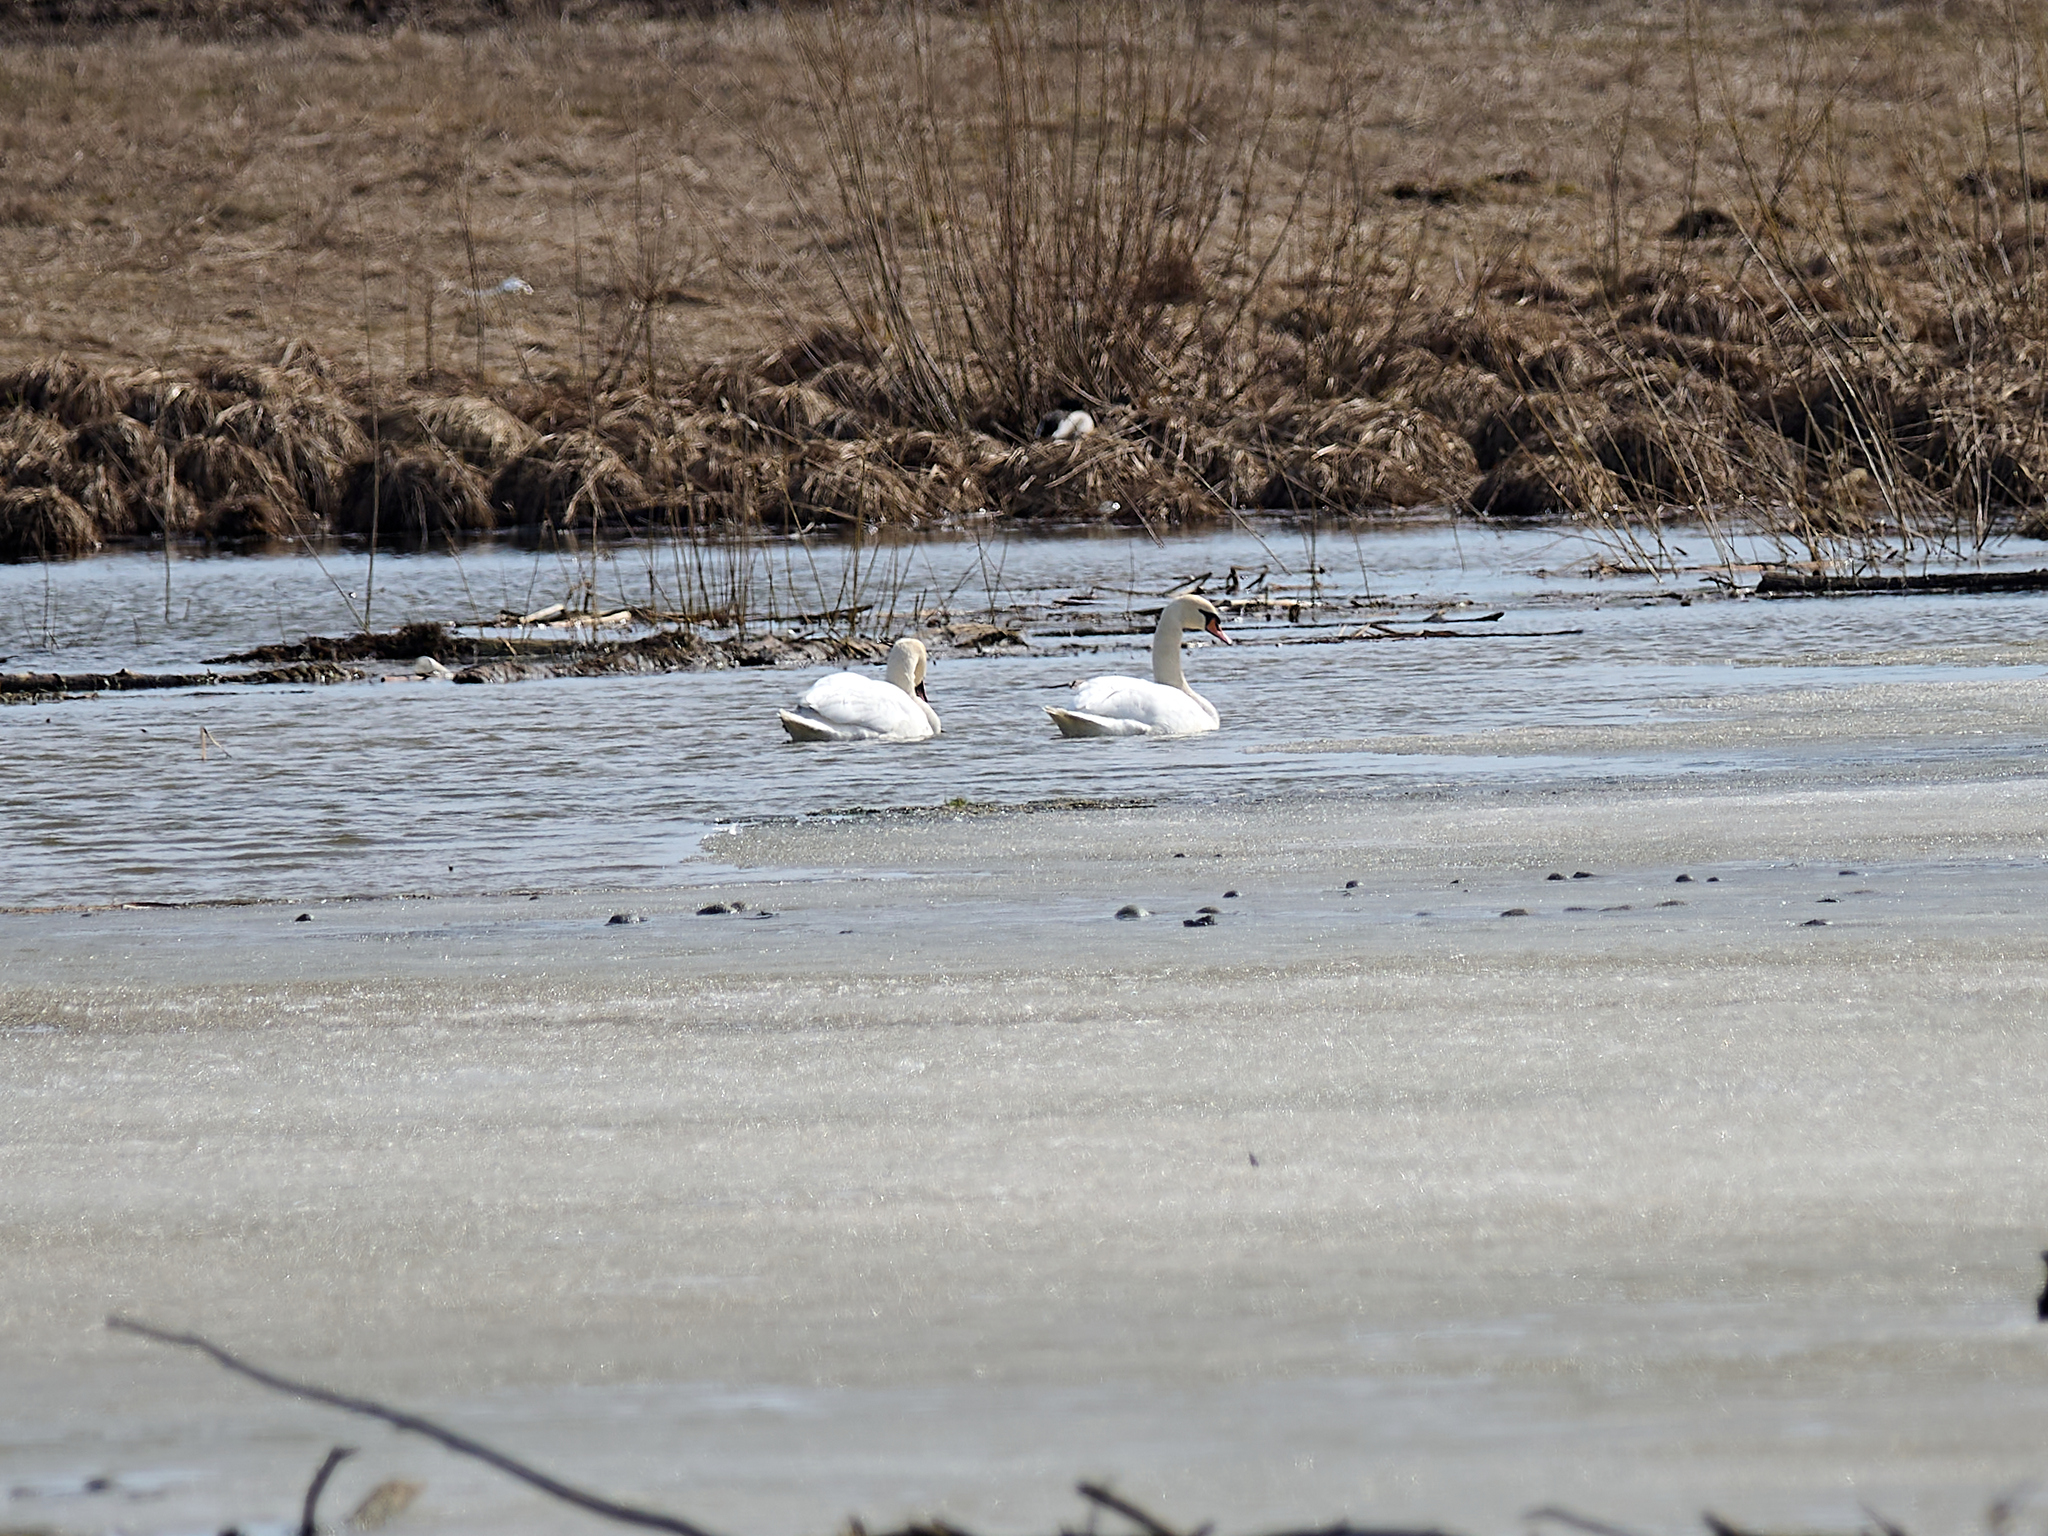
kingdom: Animalia
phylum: Chordata
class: Aves
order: Anseriformes
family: Anatidae
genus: Cygnus
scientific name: Cygnus olor
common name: Mute swan
